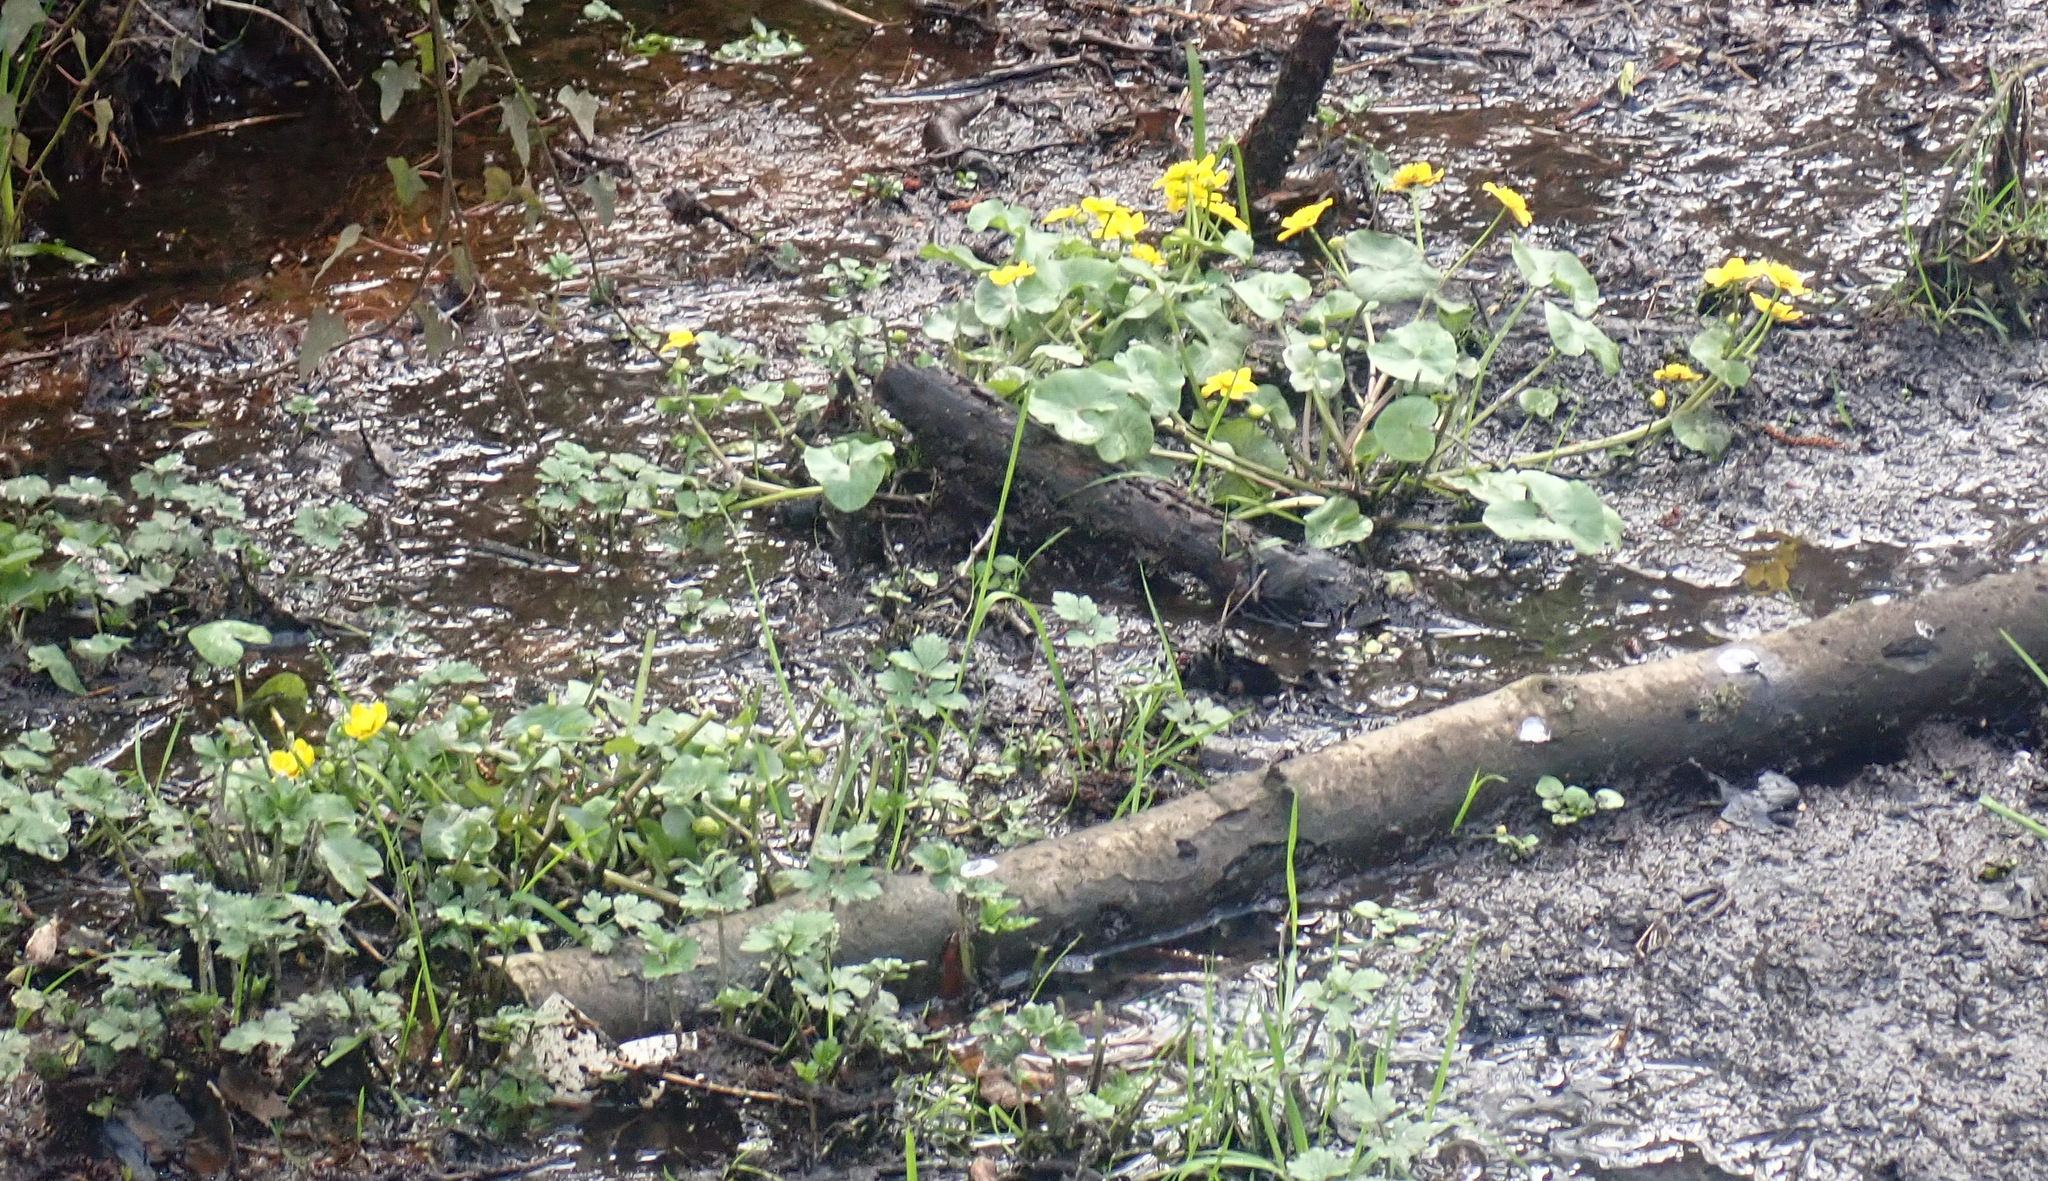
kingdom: Plantae
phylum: Tracheophyta
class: Magnoliopsida
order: Ranunculales
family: Ranunculaceae
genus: Caltha
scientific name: Caltha palustris
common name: Marsh marigold
